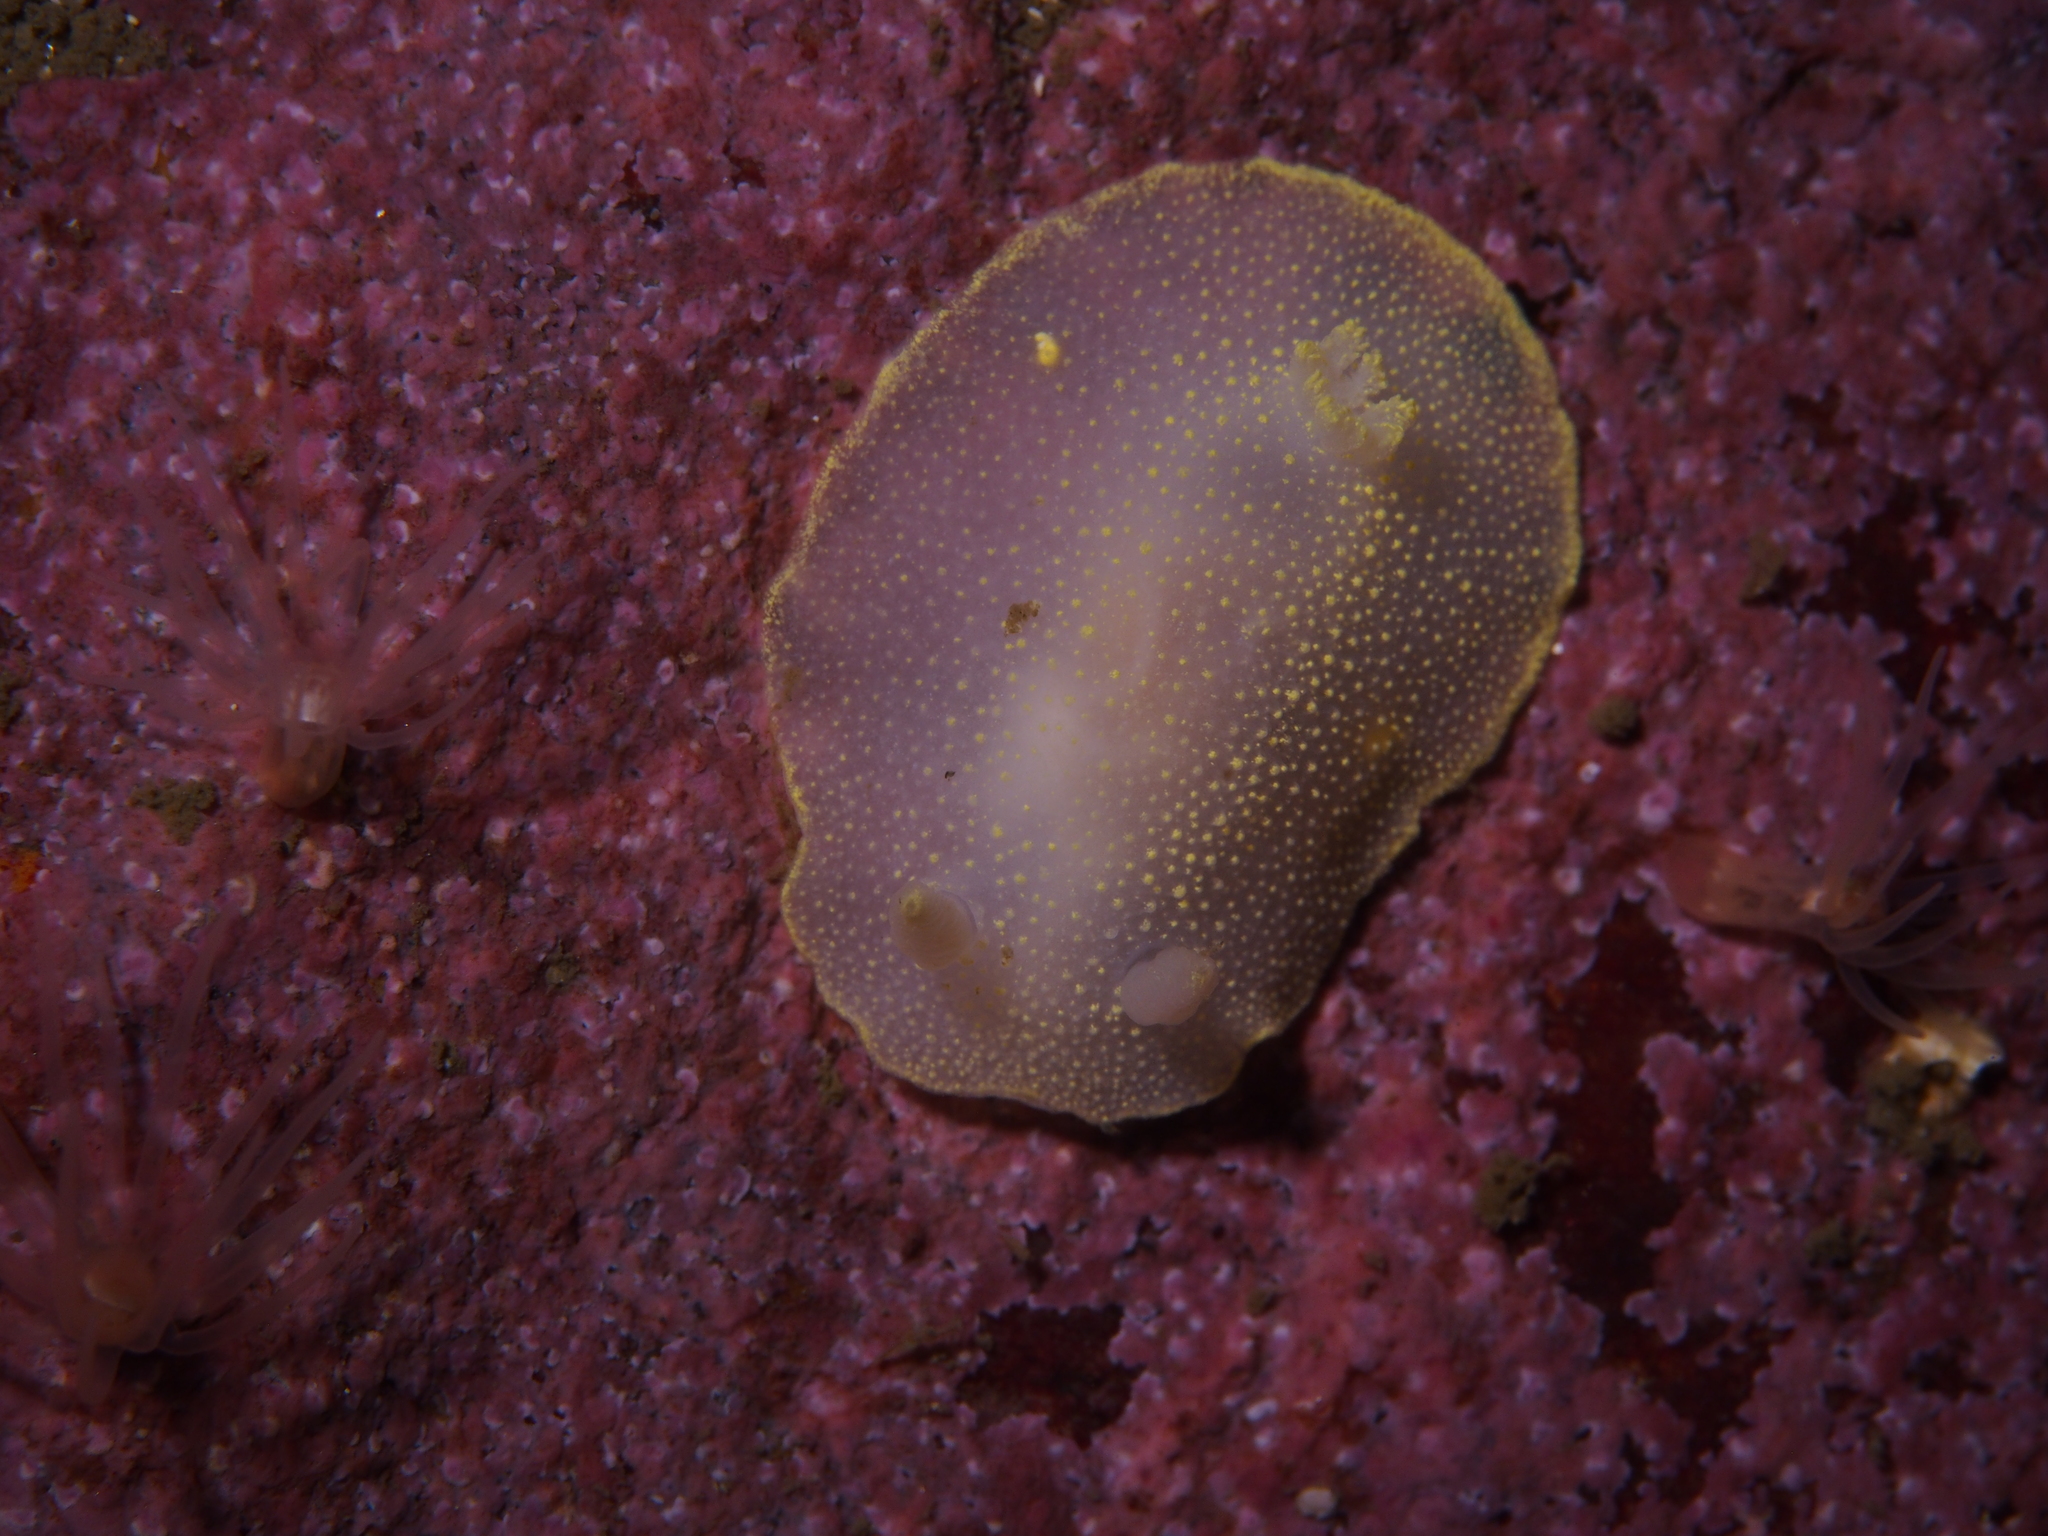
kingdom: Animalia
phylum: Mollusca
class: Gastropoda
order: Nudibranchia
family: Cadlinidae
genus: Cadlina
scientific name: Cadlina laevis
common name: White atlantic cadlina
